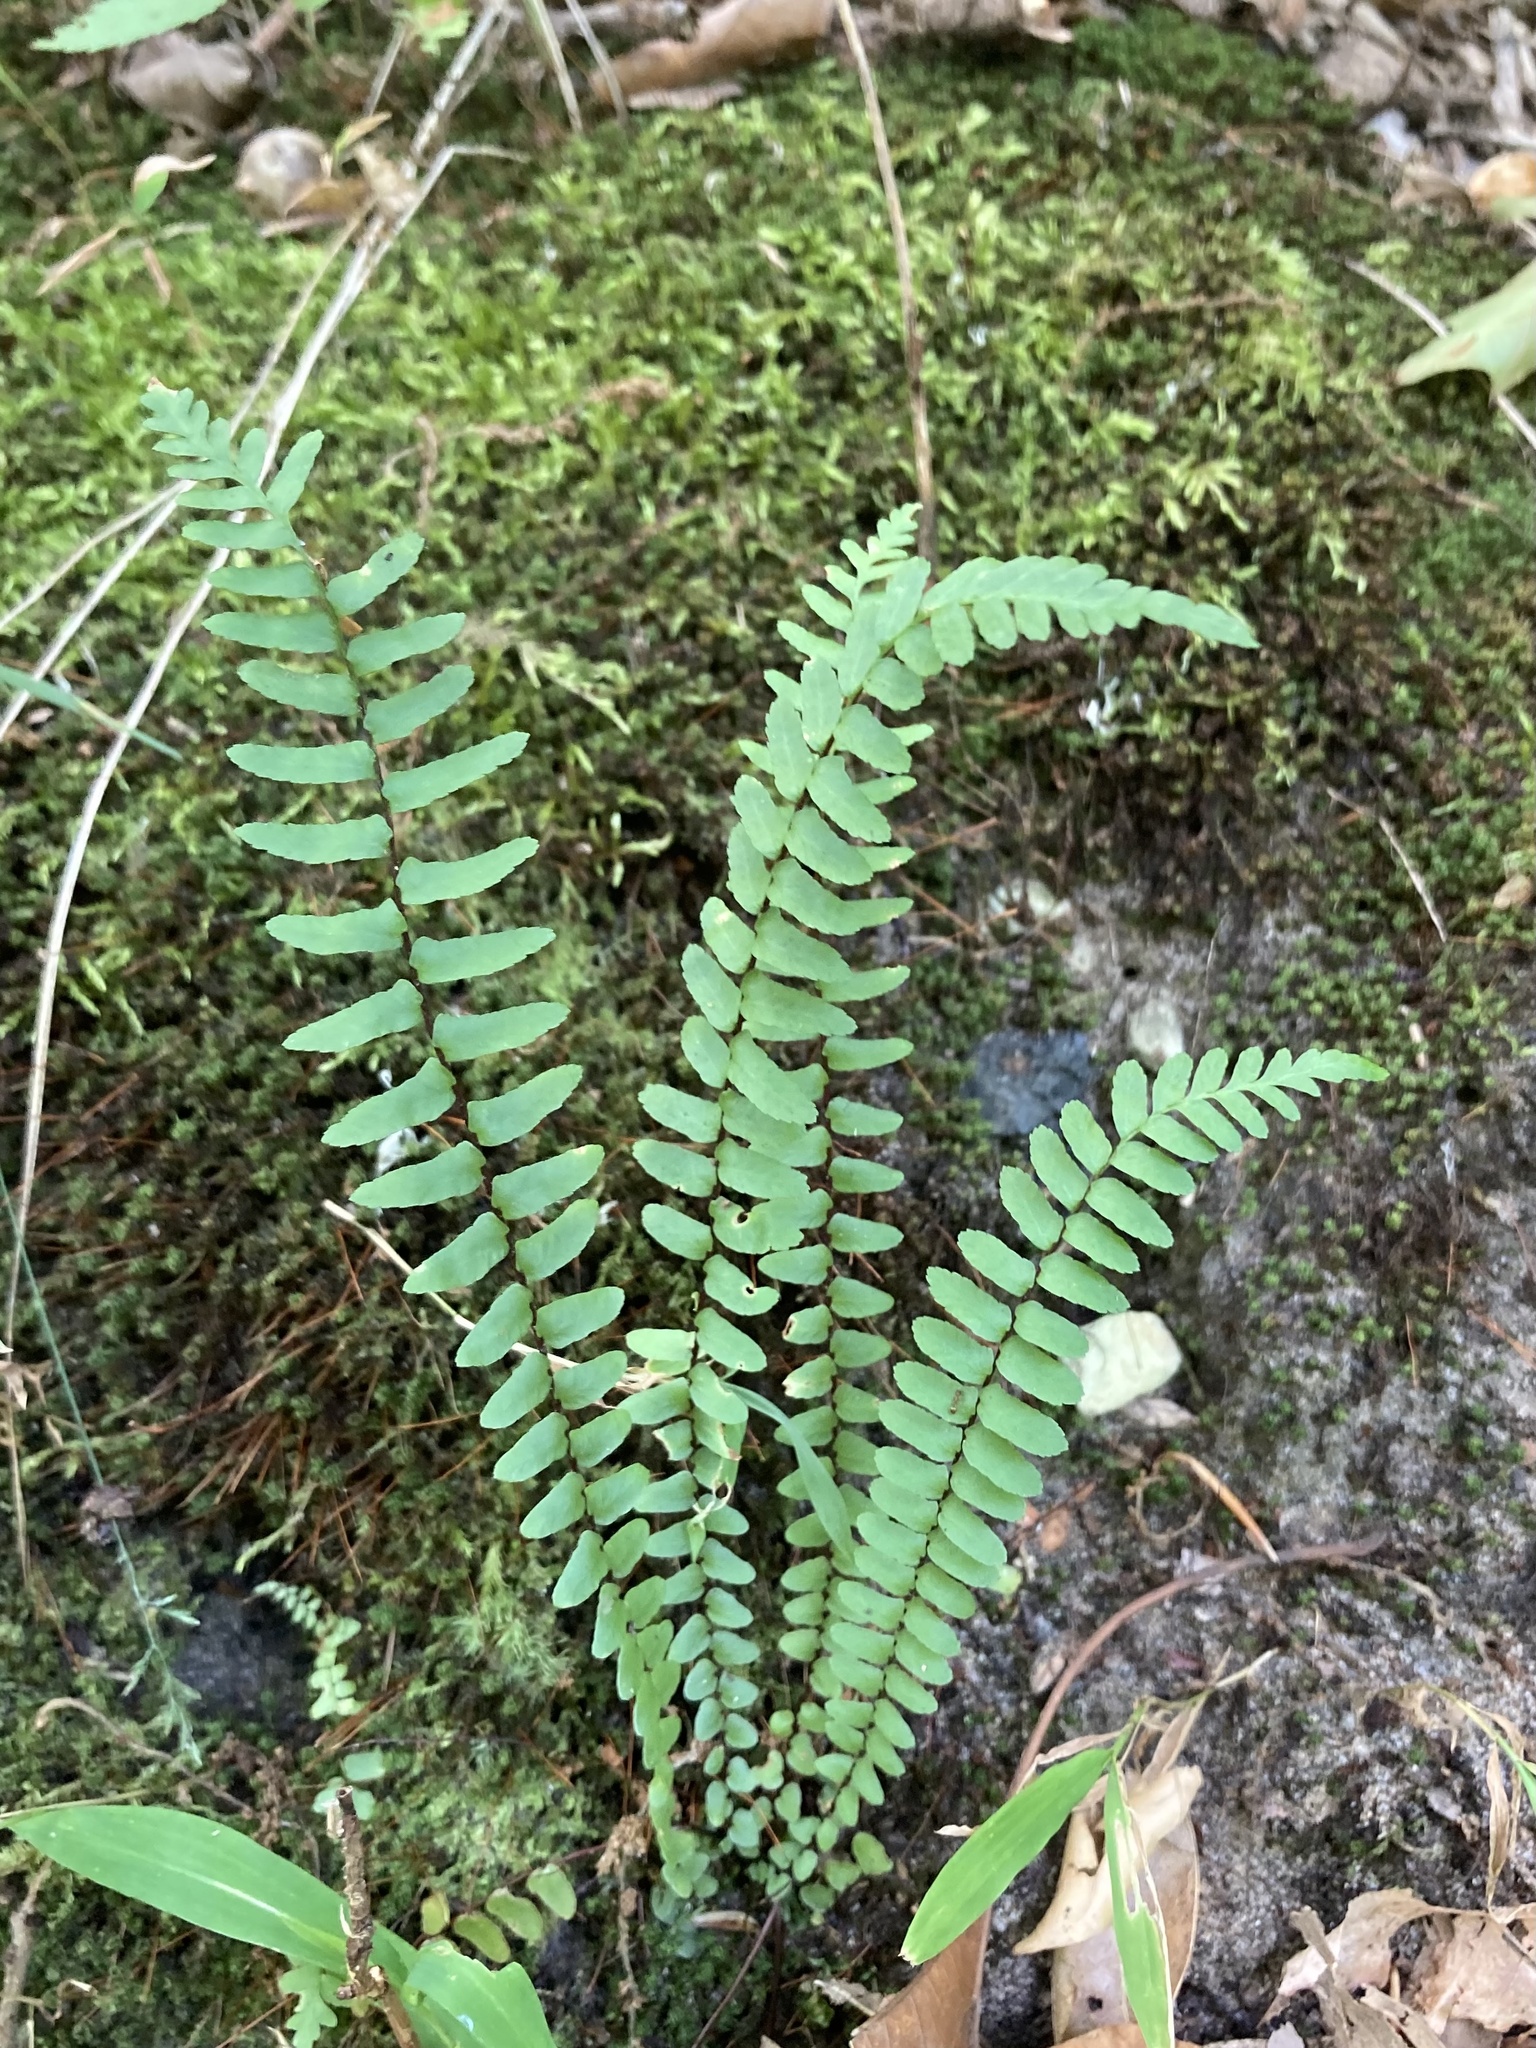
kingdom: Plantae
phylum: Tracheophyta
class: Polypodiopsida
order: Polypodiales
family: Aspleniaceae
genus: Asplenium
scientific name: Asplenium platyneuron
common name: Ebony spleenwort
